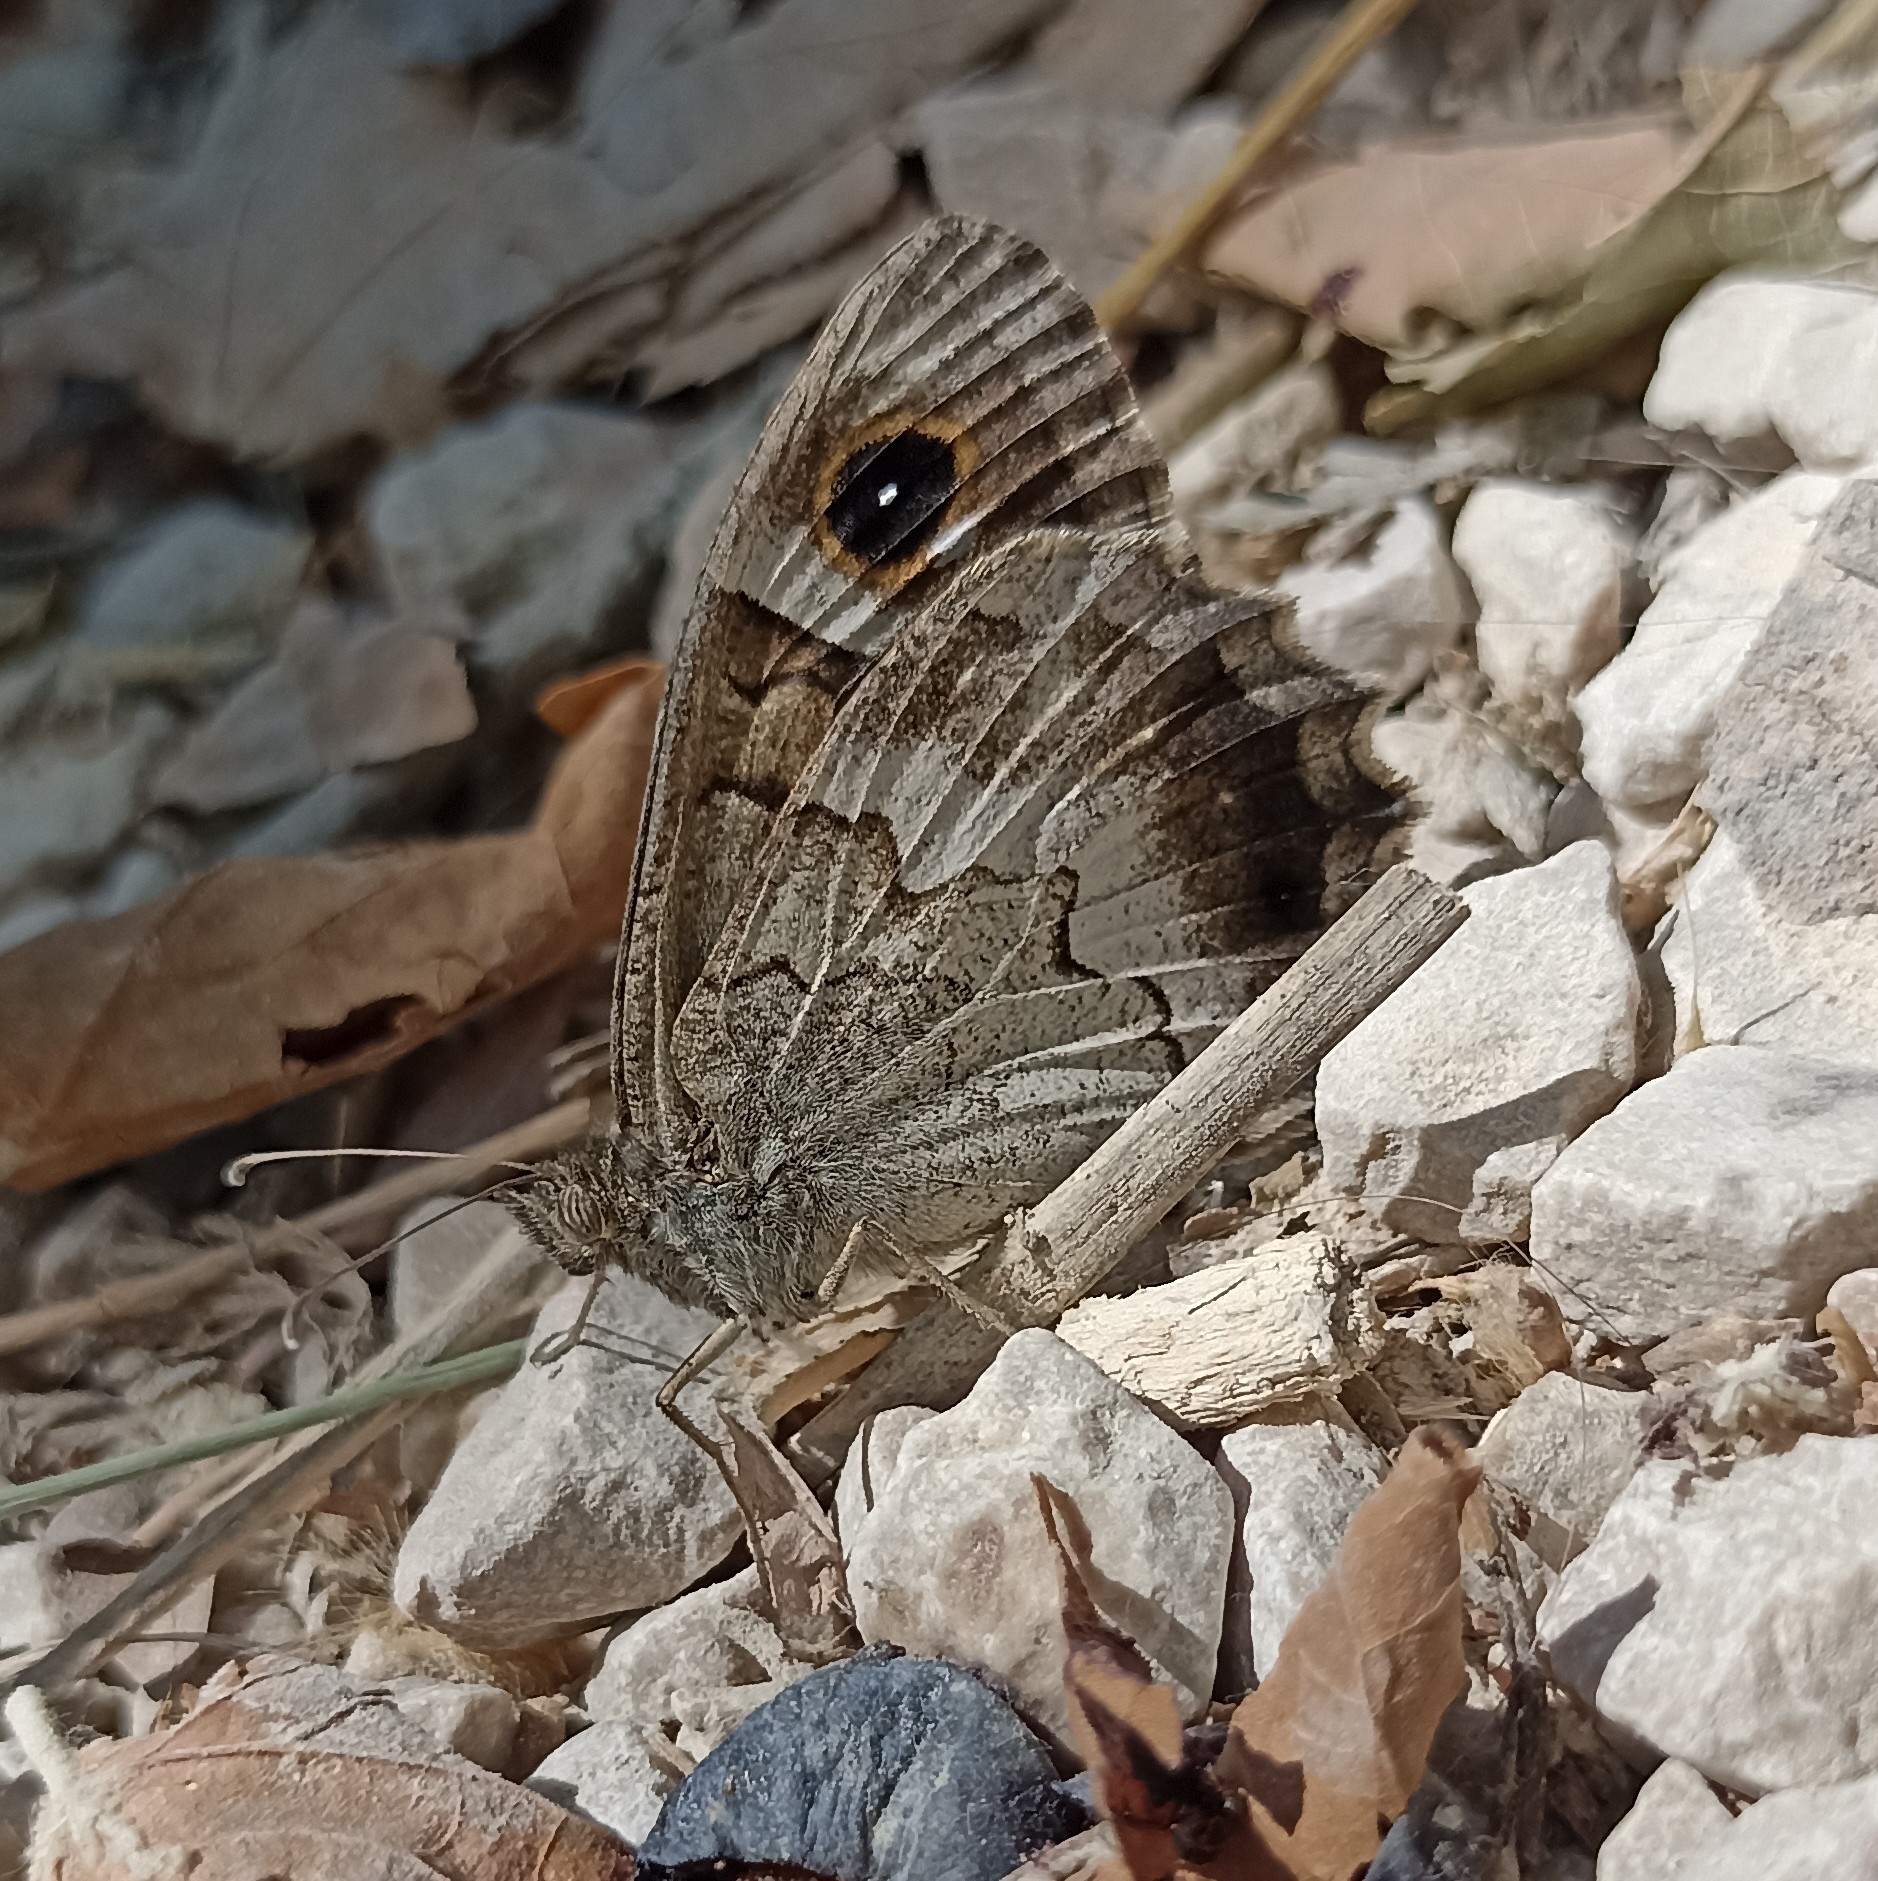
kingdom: Animalia
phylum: Arthropoda
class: Insecta
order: Lepidoptera
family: Nymphalidae
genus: Hipparchia
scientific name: Hipparchia statilinus
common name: Tree grayling
